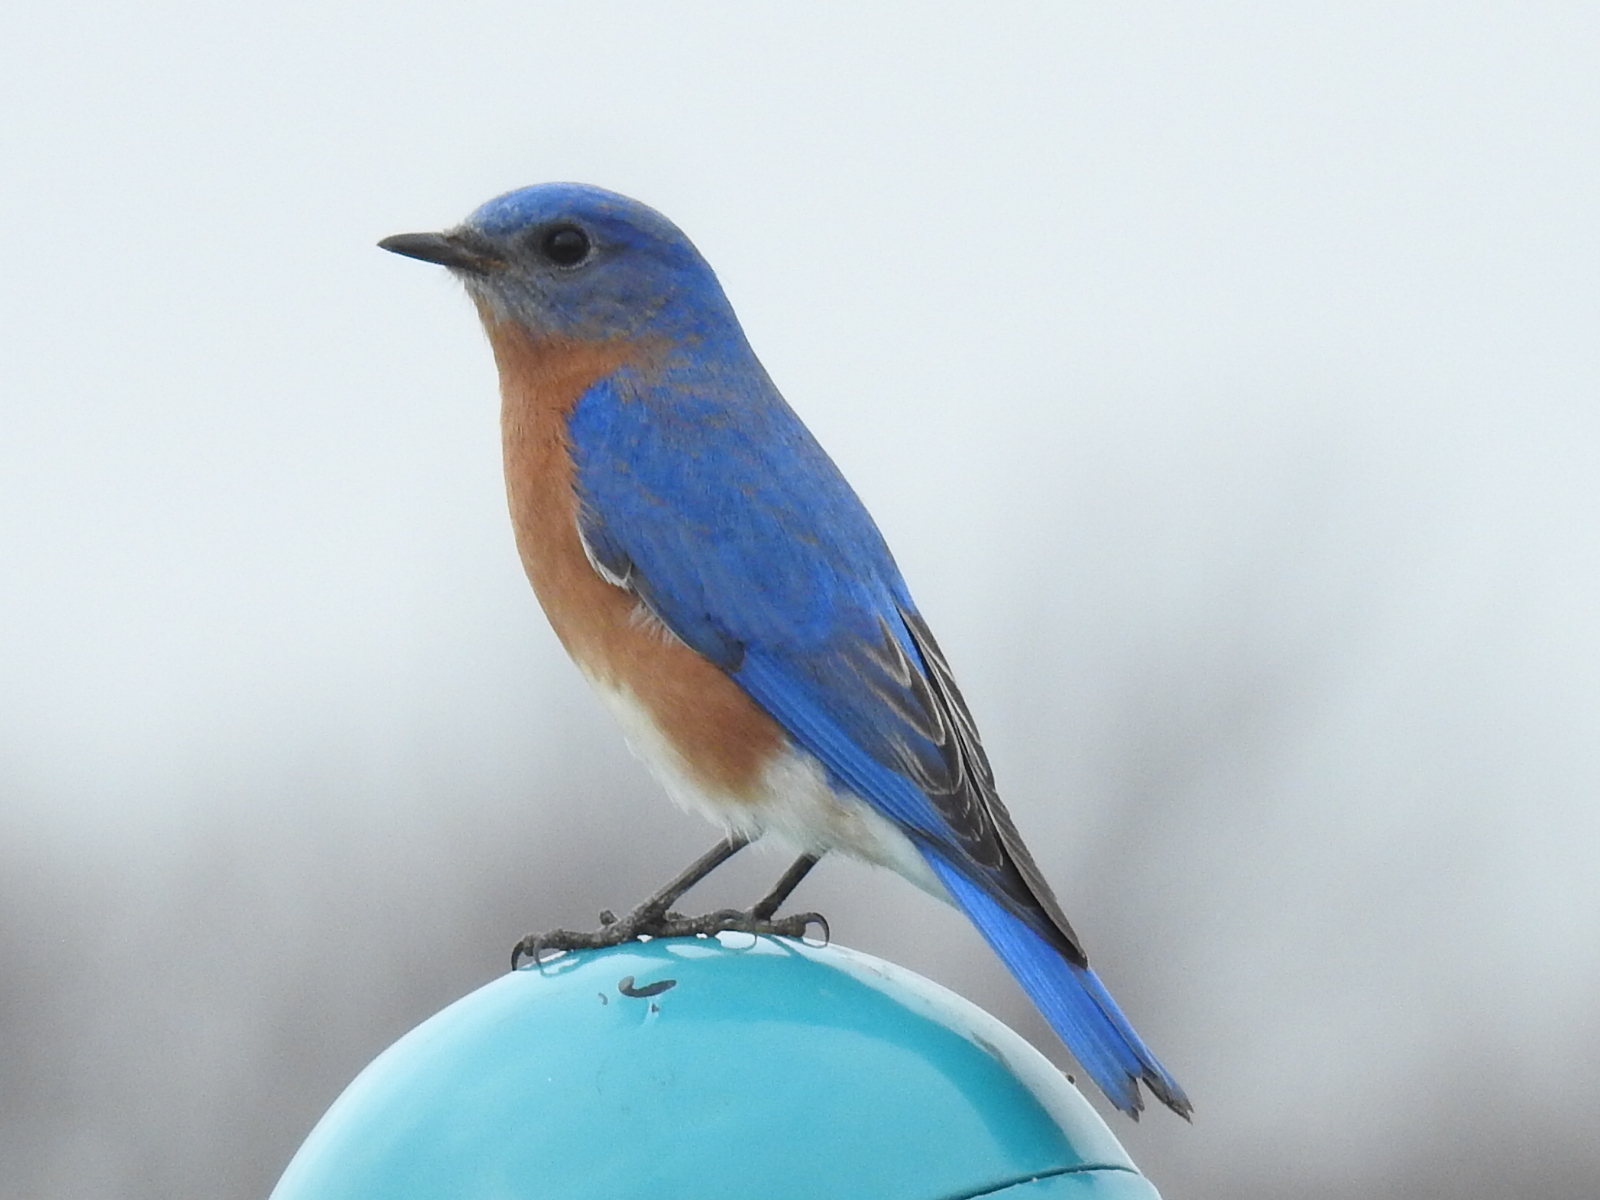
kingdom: Animalia
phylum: Chordata
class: Aves
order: Passeriformes
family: Turdidae
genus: Sialia
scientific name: Sialia sialis
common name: Eastern bluebird
